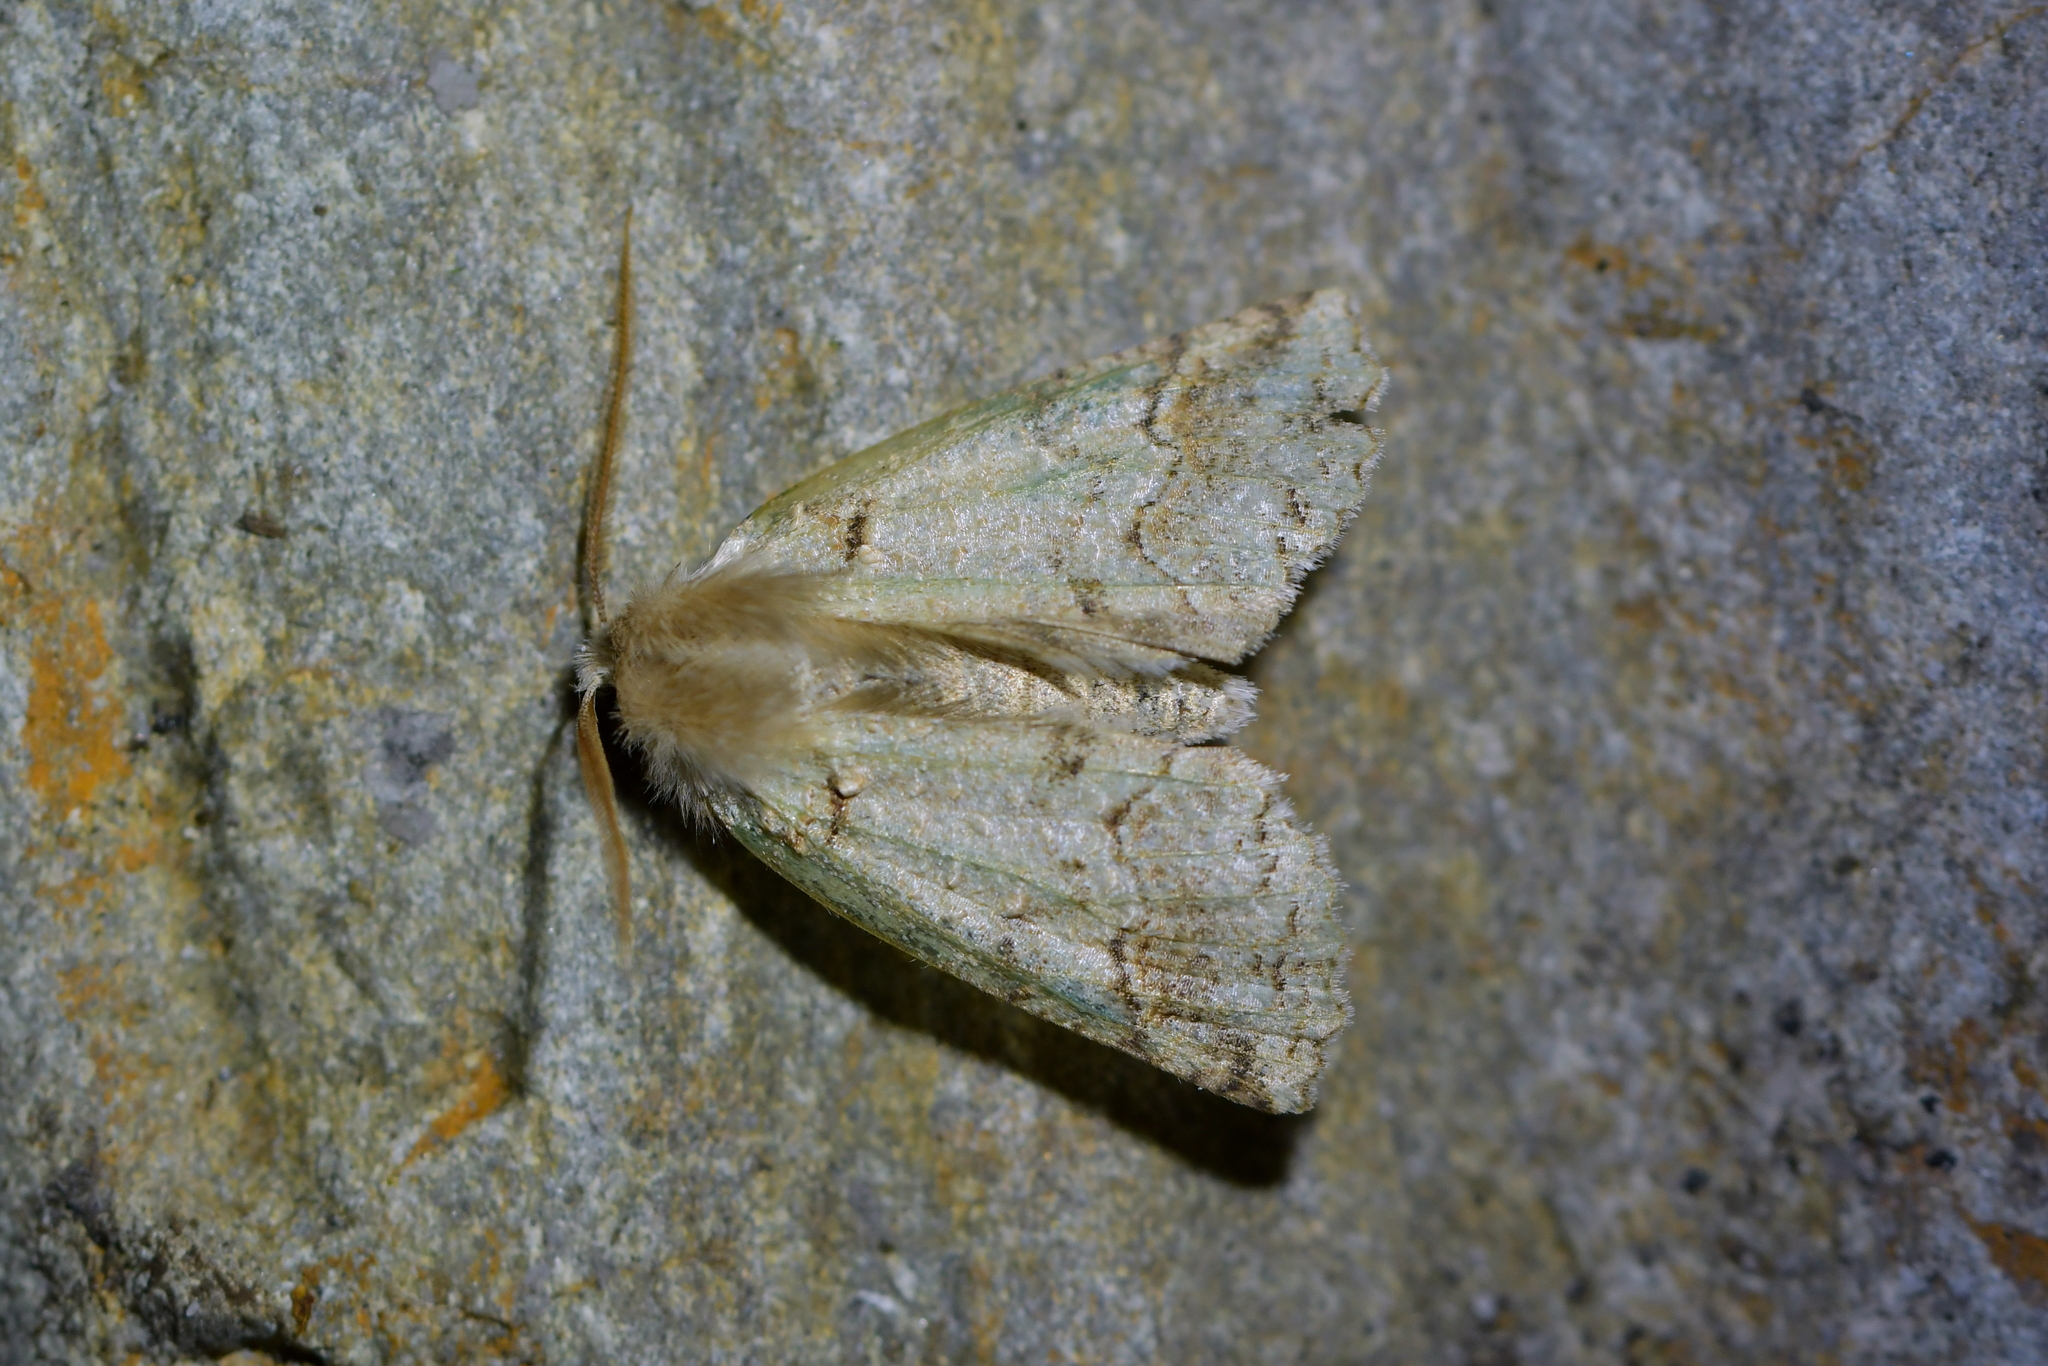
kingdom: Animalia
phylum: Arthropoda
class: Insecta
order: Lepidoptera
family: Geometridae
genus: Declana
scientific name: Declana floccosa
